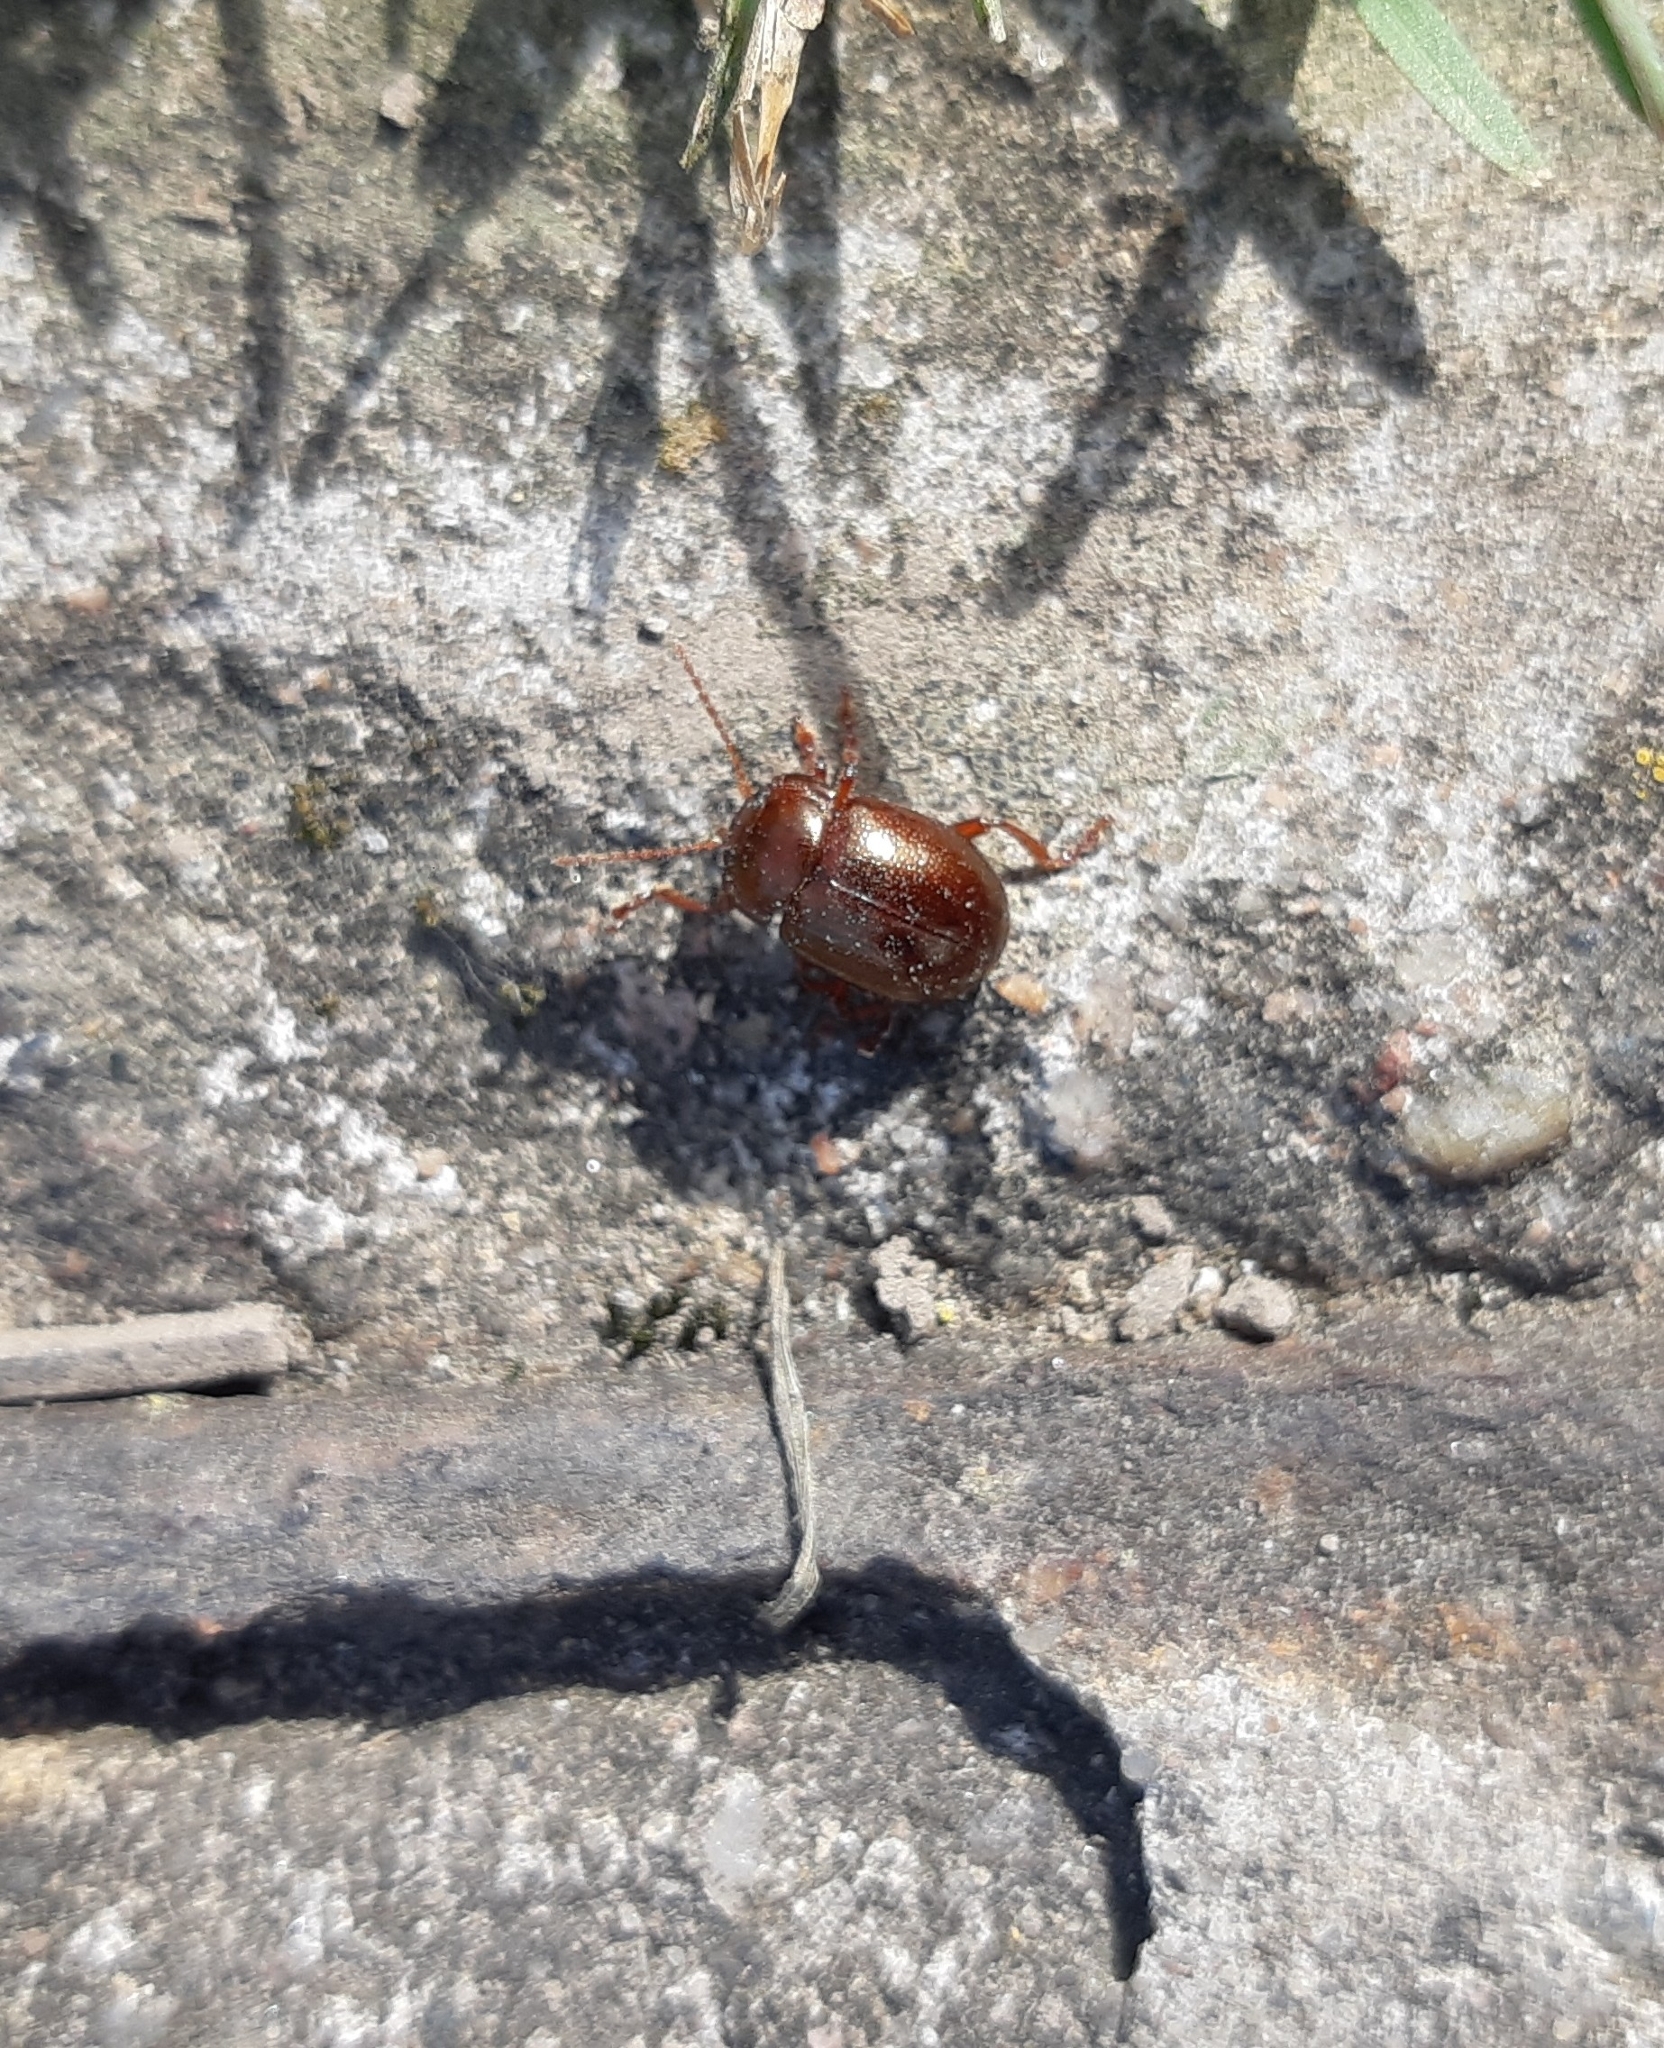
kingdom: Animalia
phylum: Arthropoda
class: Insecta
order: Coleoptera
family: Chrysomelidae
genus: Chrysolina
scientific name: Chrysolina staphylaea
